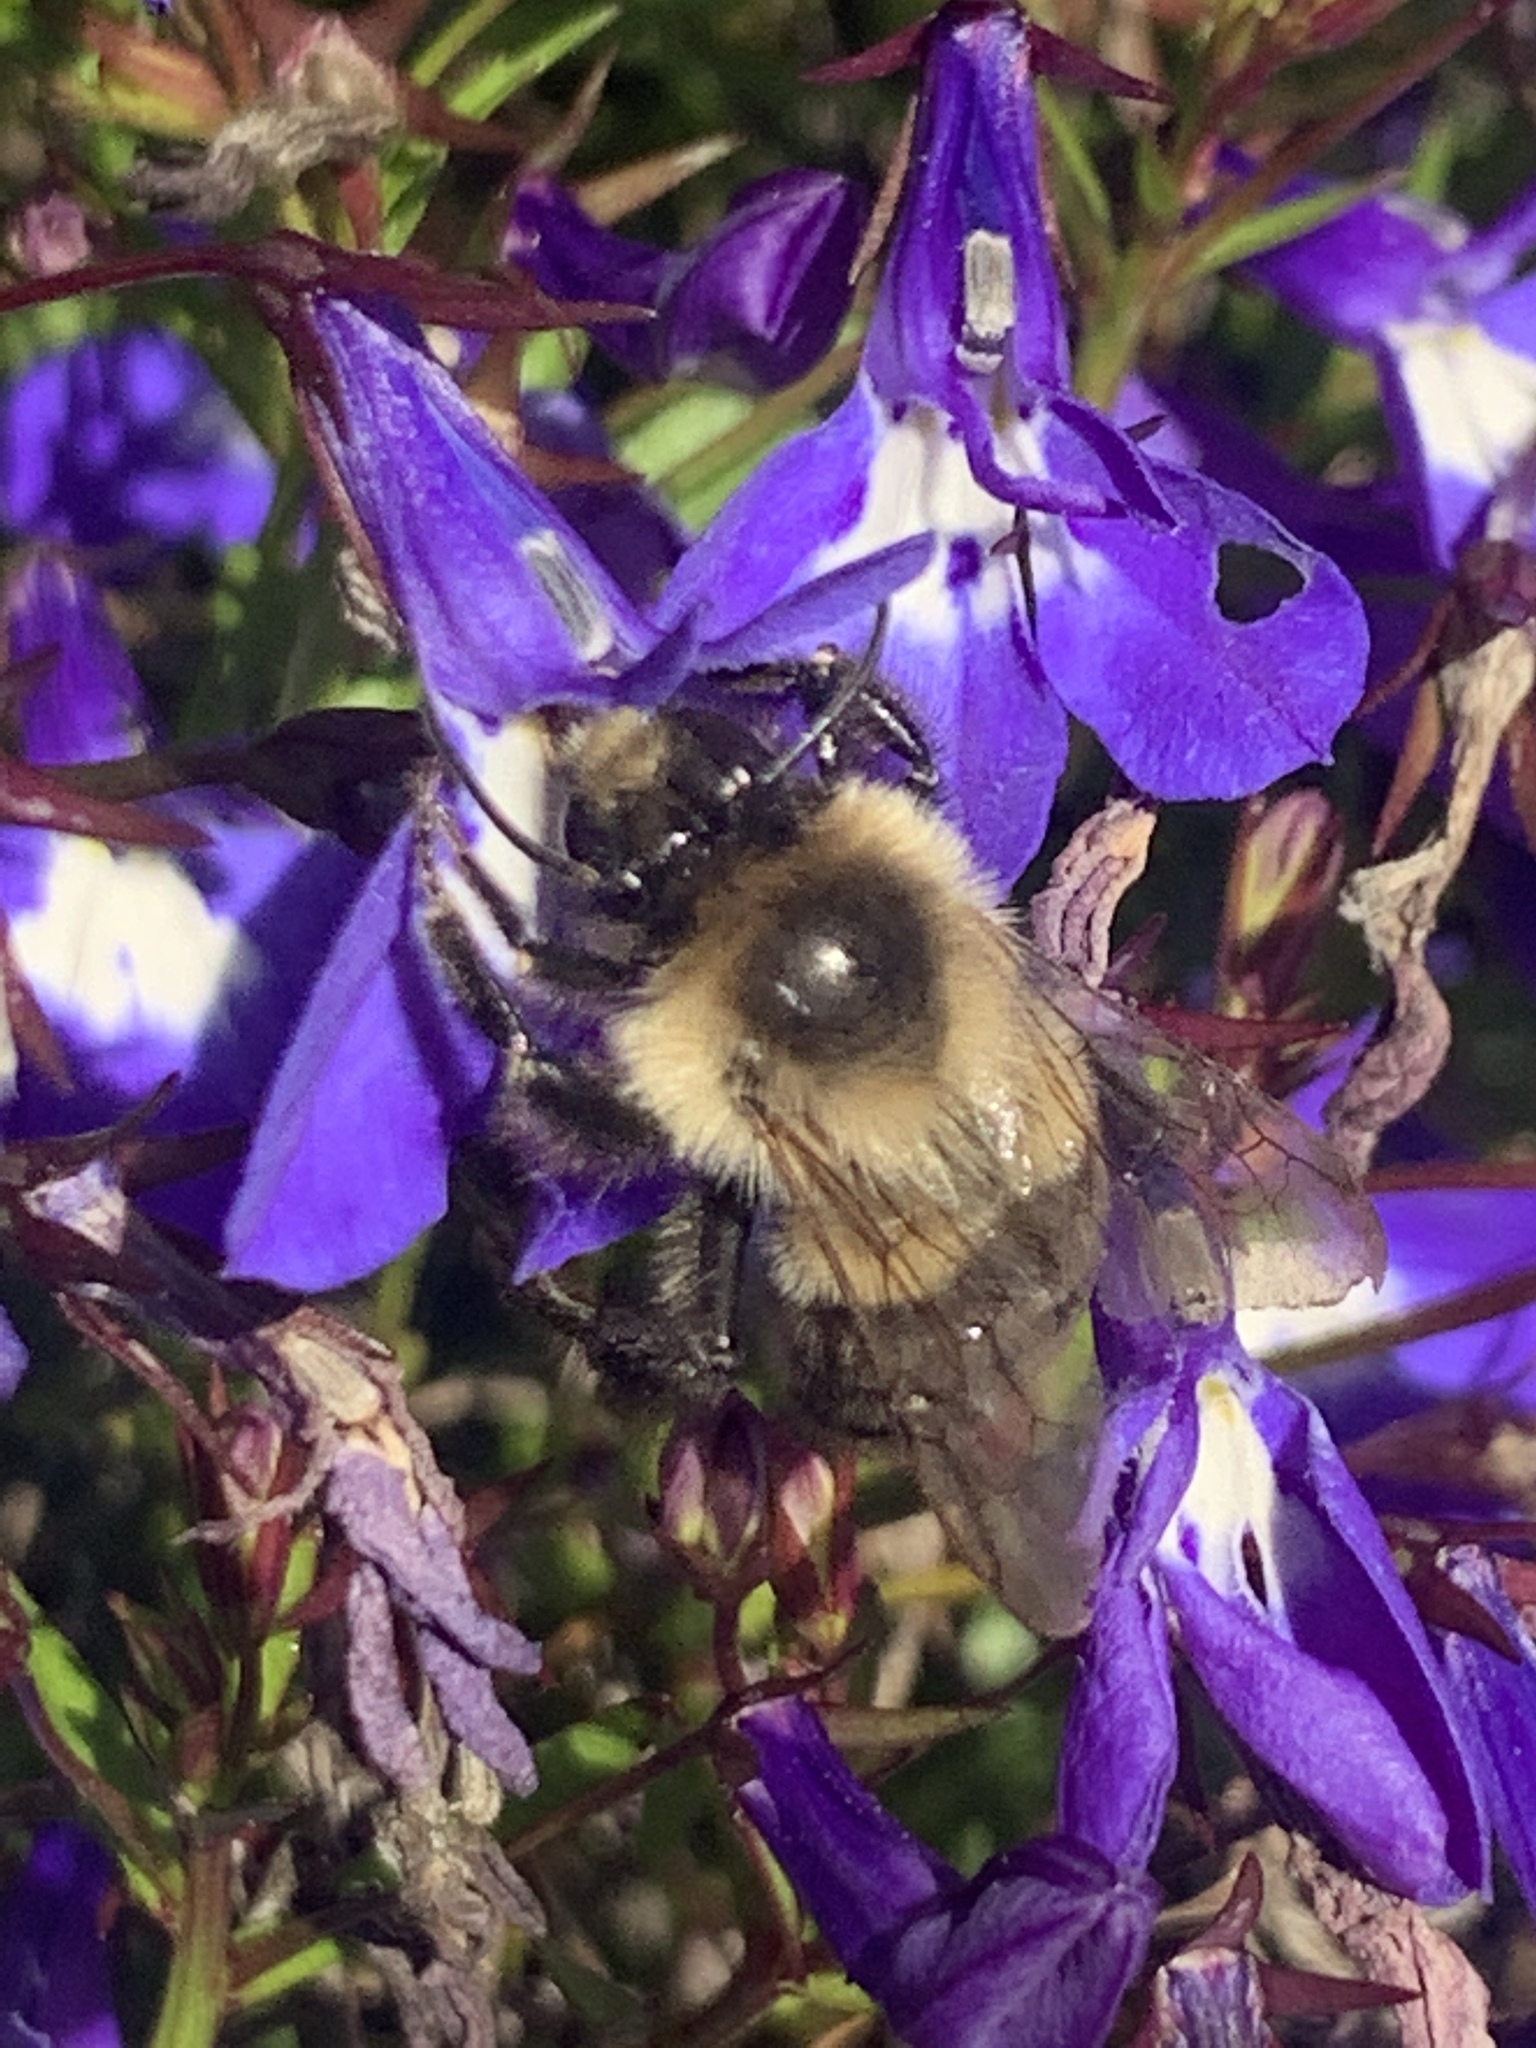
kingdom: Animalia
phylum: Arthropoda
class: Insecta
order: Hymenoptera
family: Apidae
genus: Bombus
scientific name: Bombus impatiens
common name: Common eastern bumble bee
